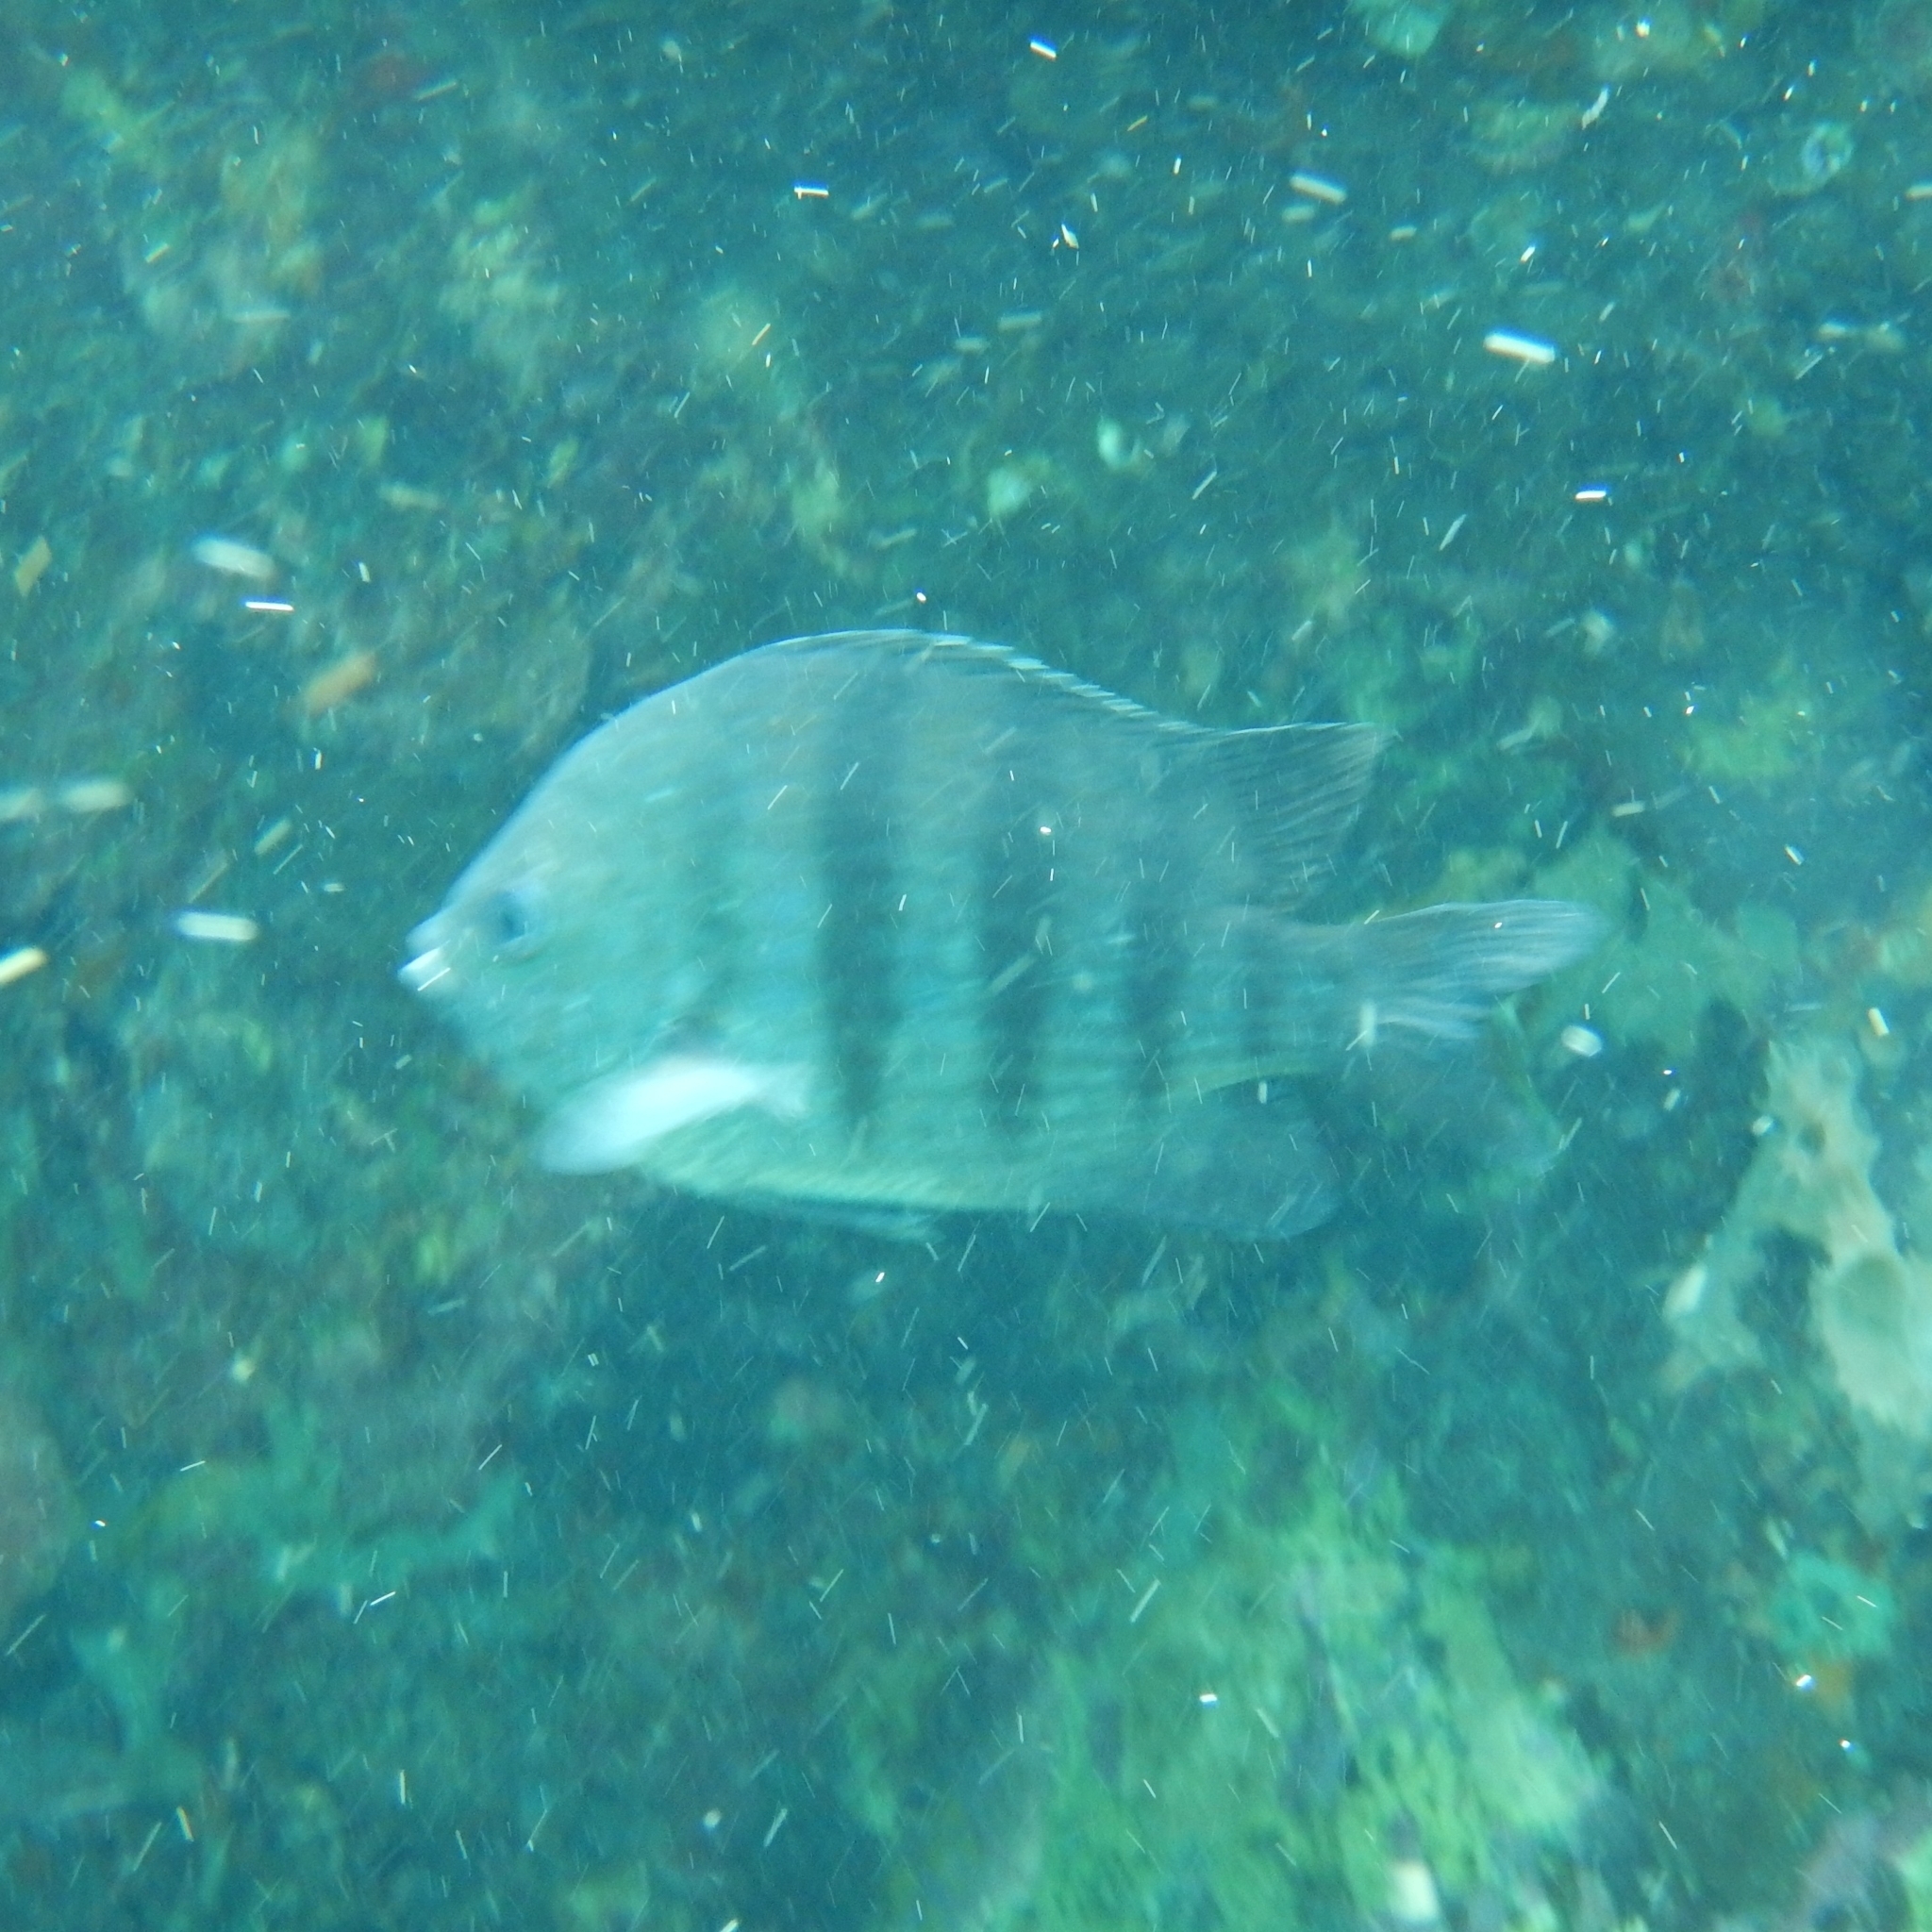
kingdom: Animalia
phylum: Chordata
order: Perciformes
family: Pomacentridae
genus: Abudefduf
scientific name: Abudefduf saxatilis
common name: Sergeant major
